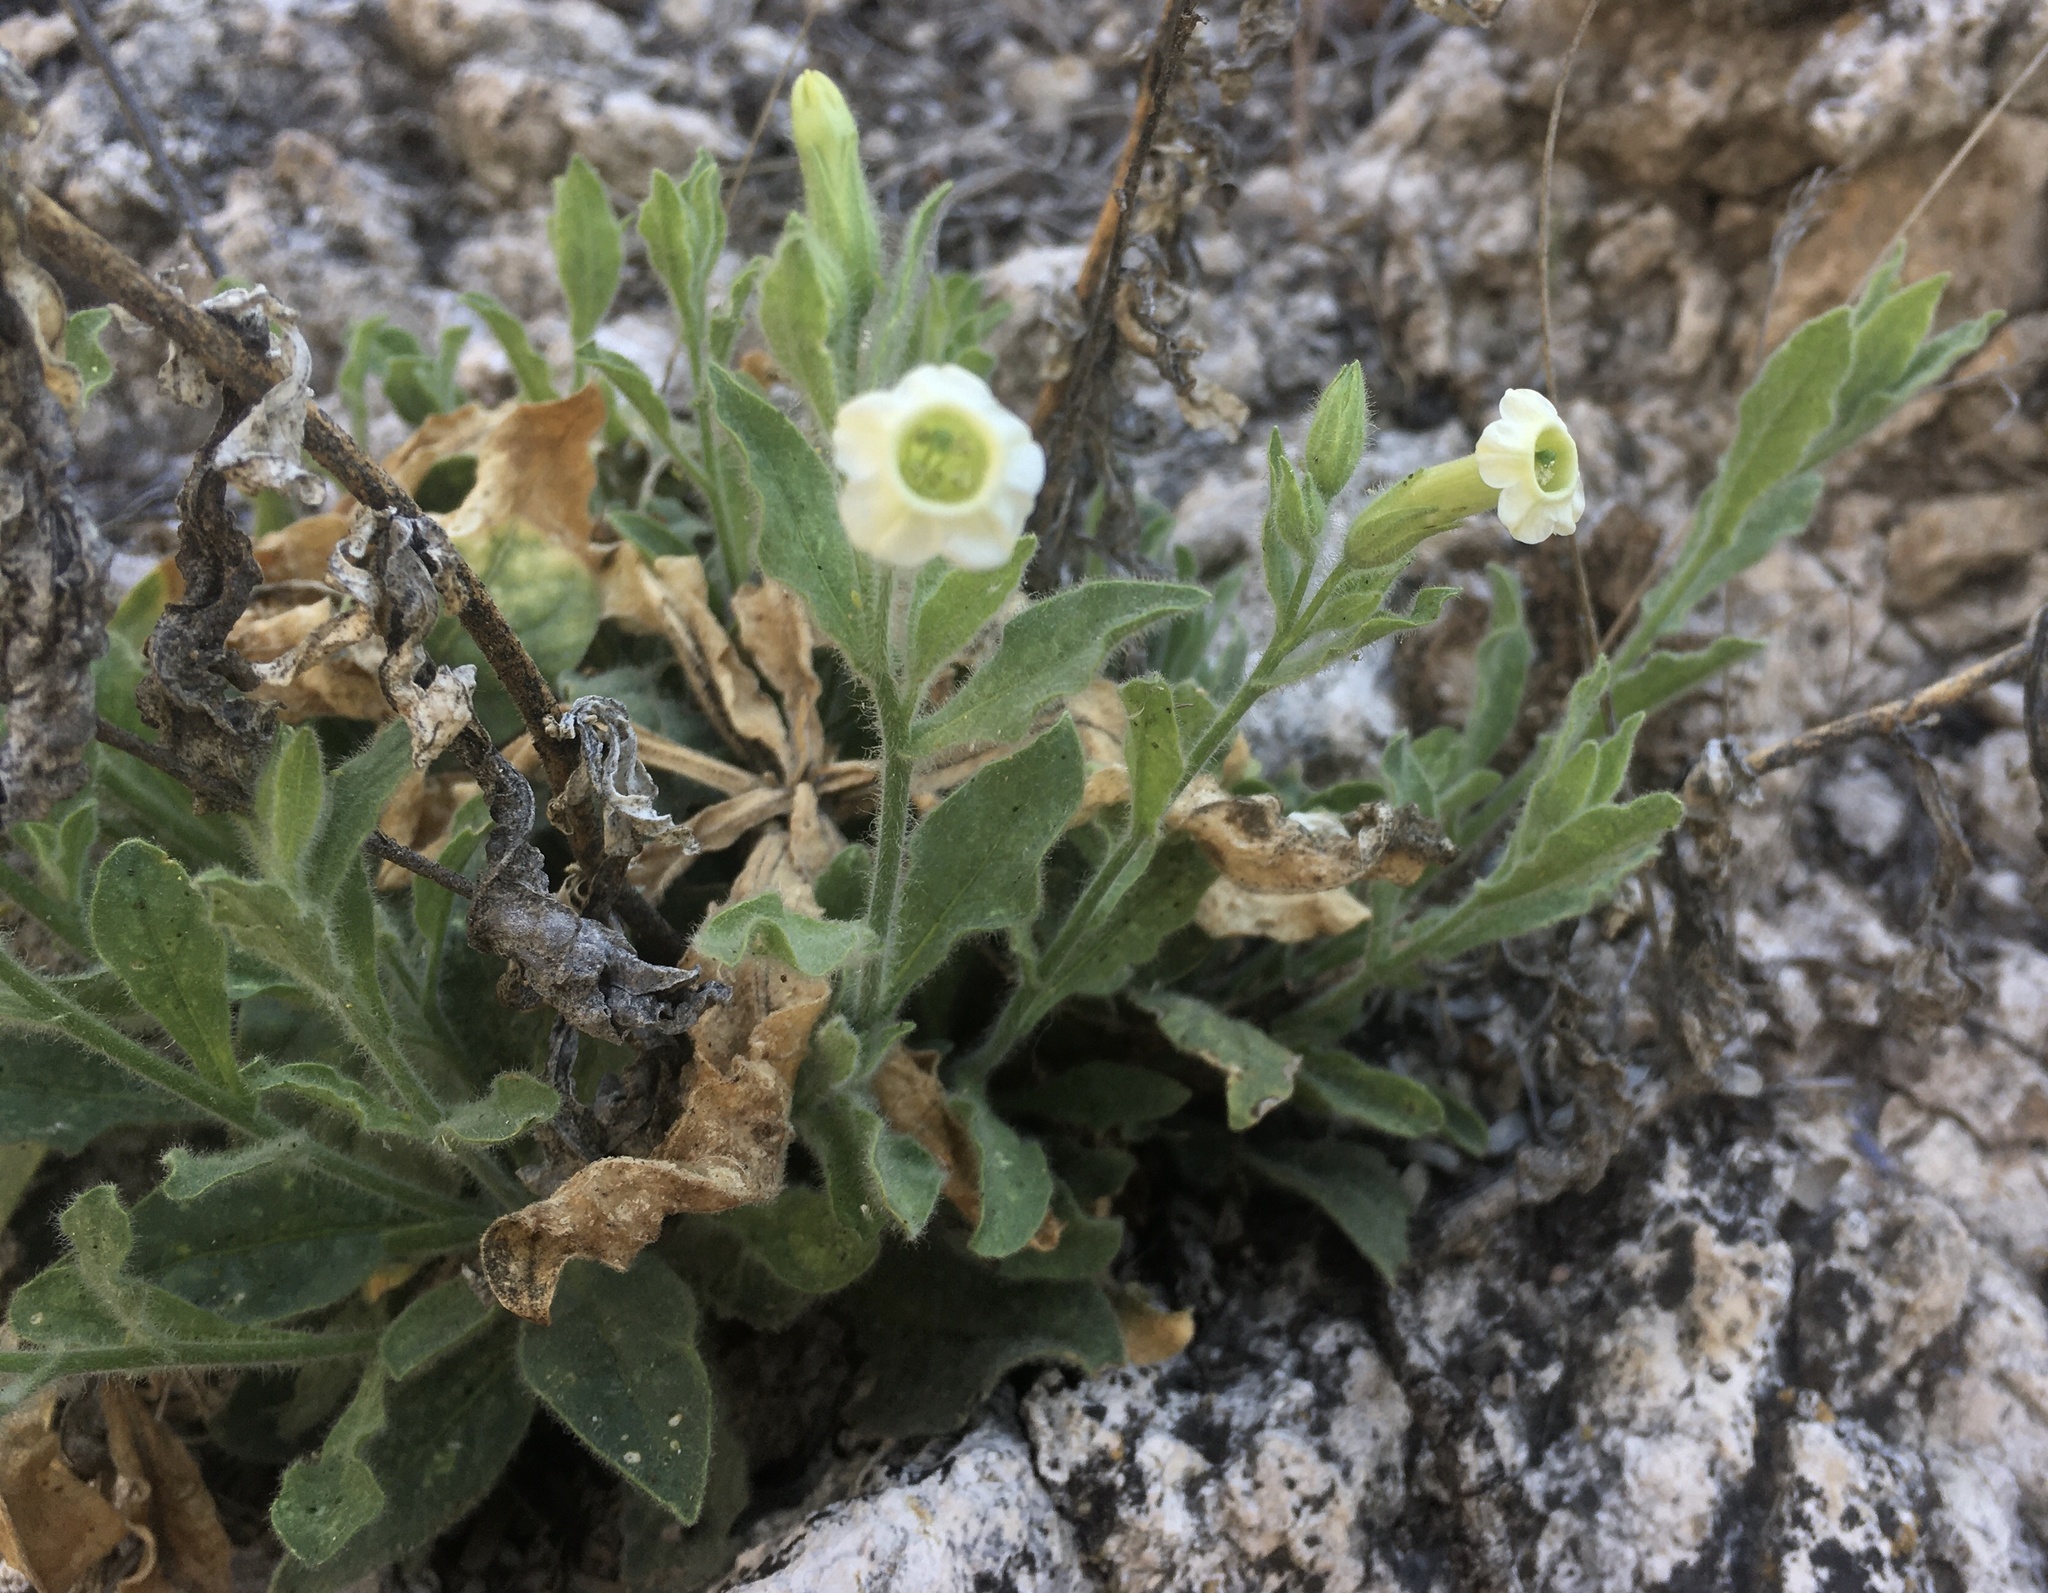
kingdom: Plantae
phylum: Tracheophyta
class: Magnoliopsida
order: Solanales
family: Solanaceae
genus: Nicotiana
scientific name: Nicotiana obtusifolia
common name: Desert tobacco
